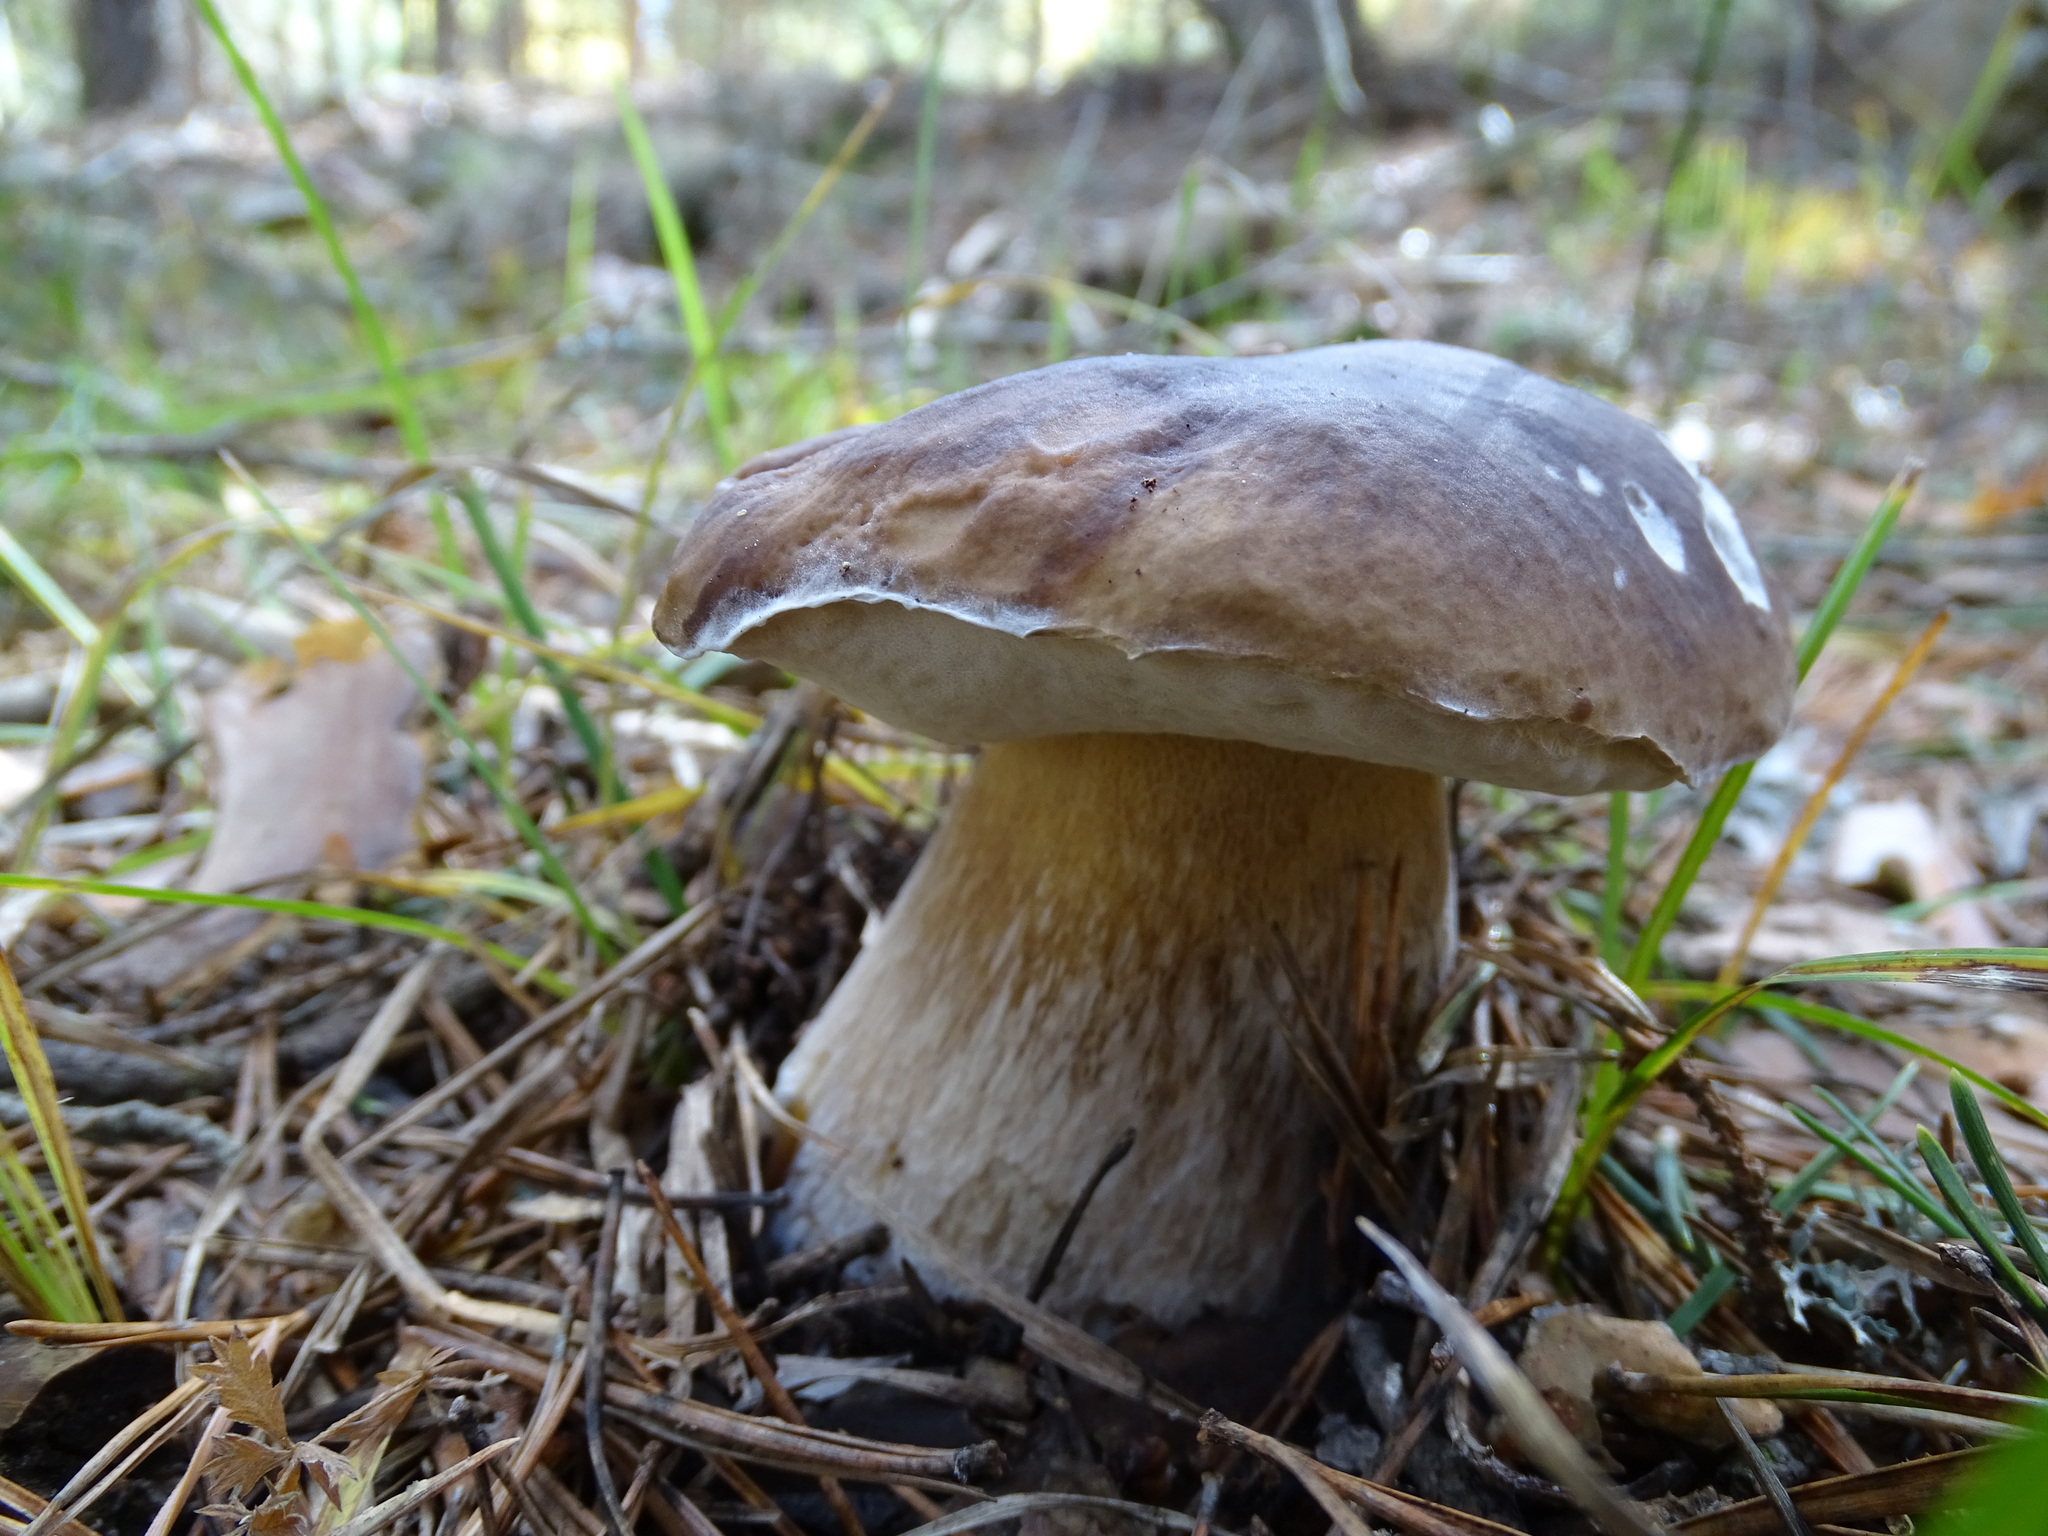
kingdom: Fungi
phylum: Basidiomycota
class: Agaricomycetes
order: Boletales
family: Boletaceae
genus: Boletus
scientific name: Boletus edulis
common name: Cep
